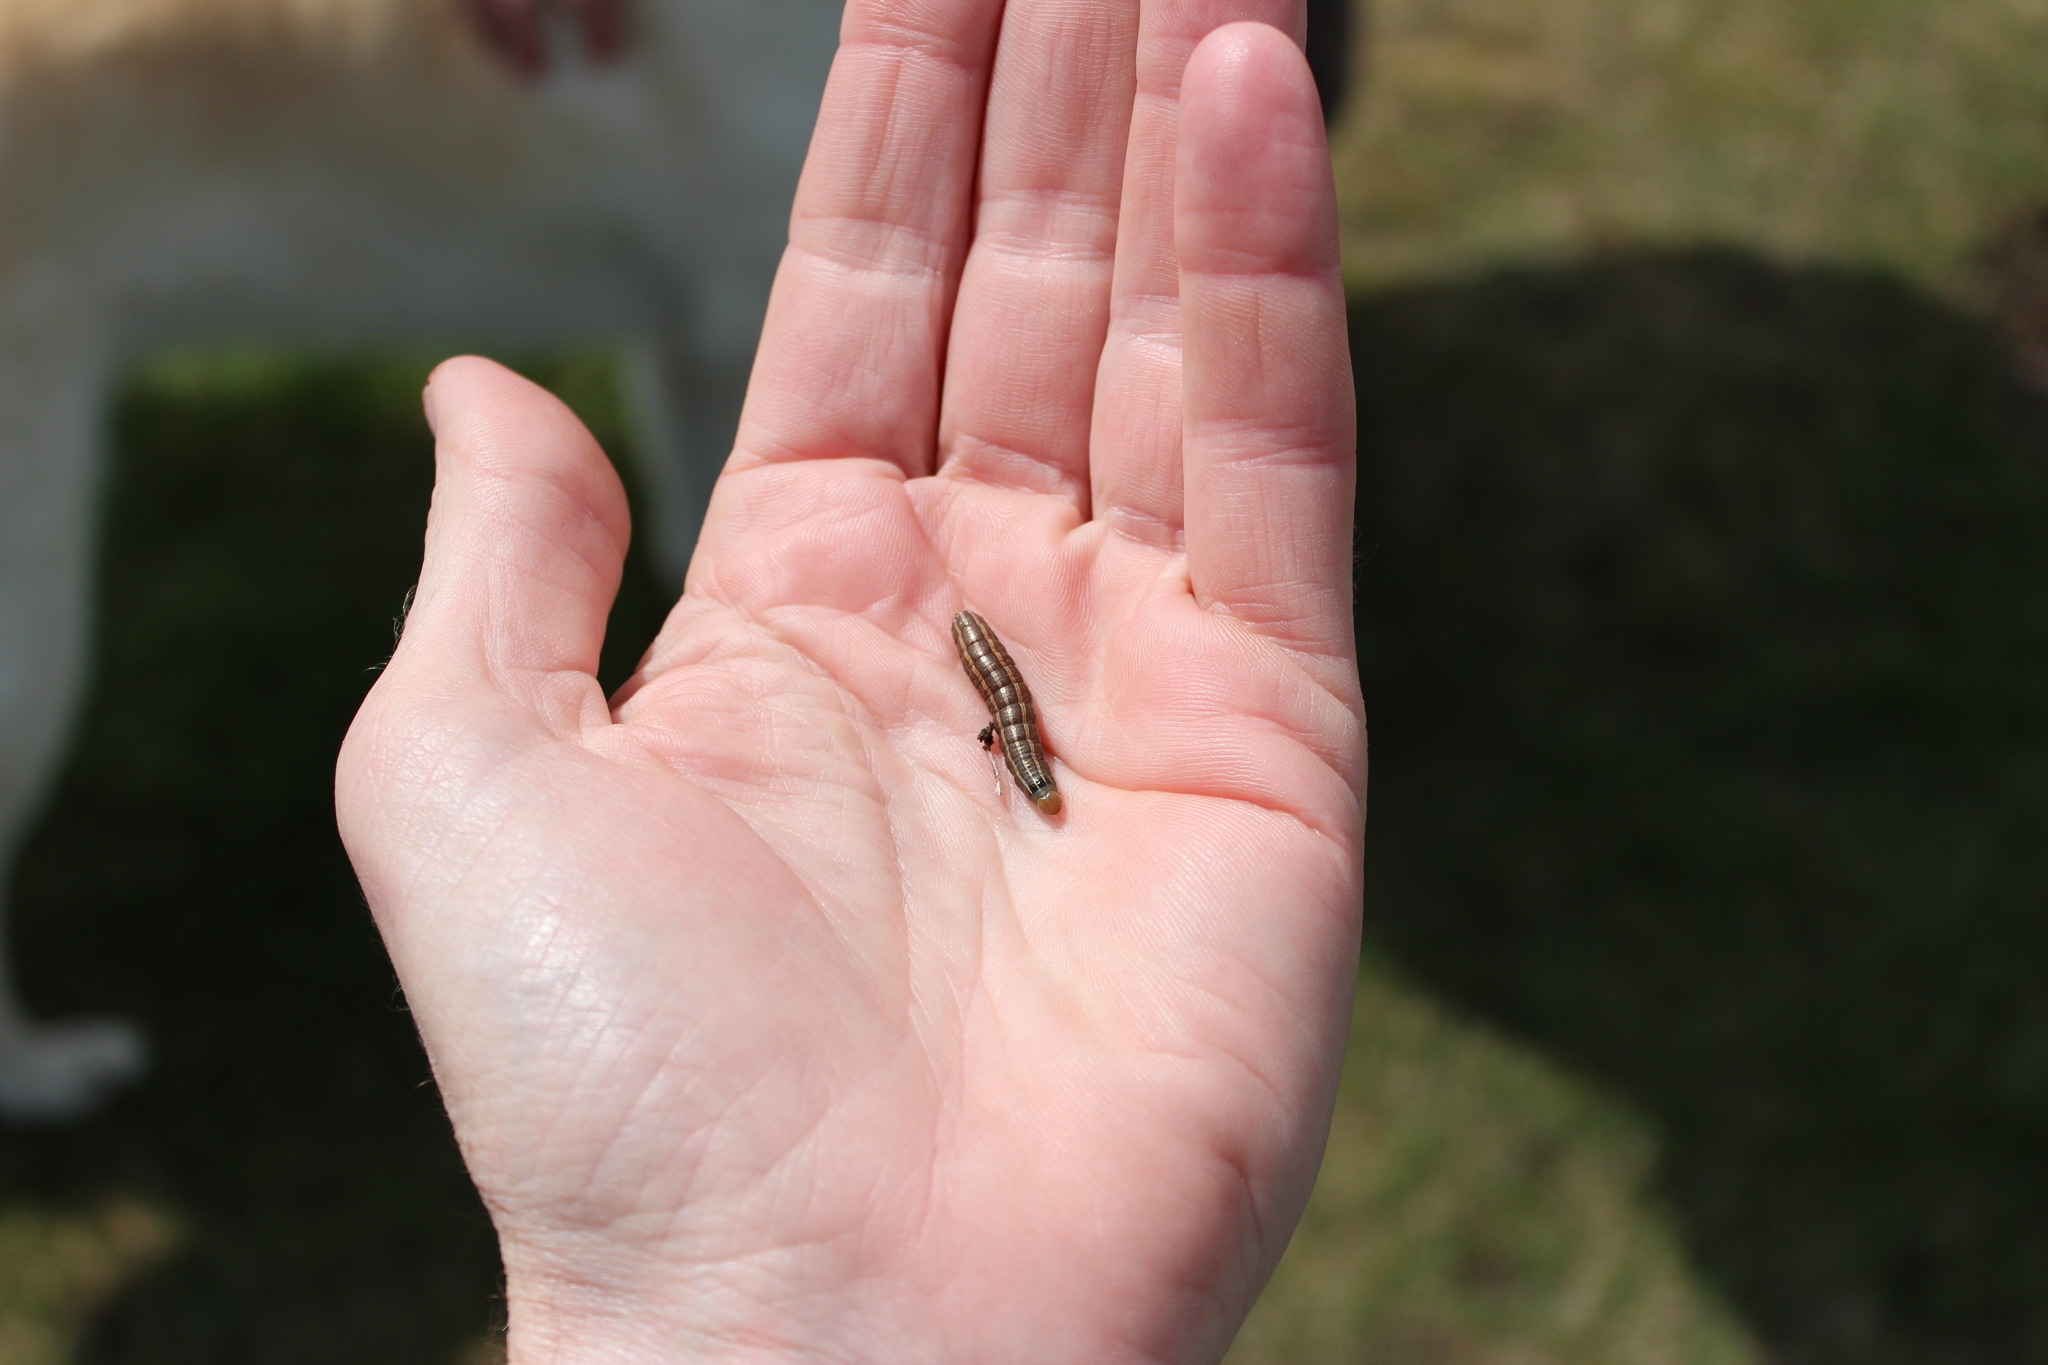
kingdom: Animalia
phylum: Arthropoda
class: Insecta
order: Lepidoptera
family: Noctuidae
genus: Nephelodes
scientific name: Nephelodes minians
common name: Bronzed cutworm
